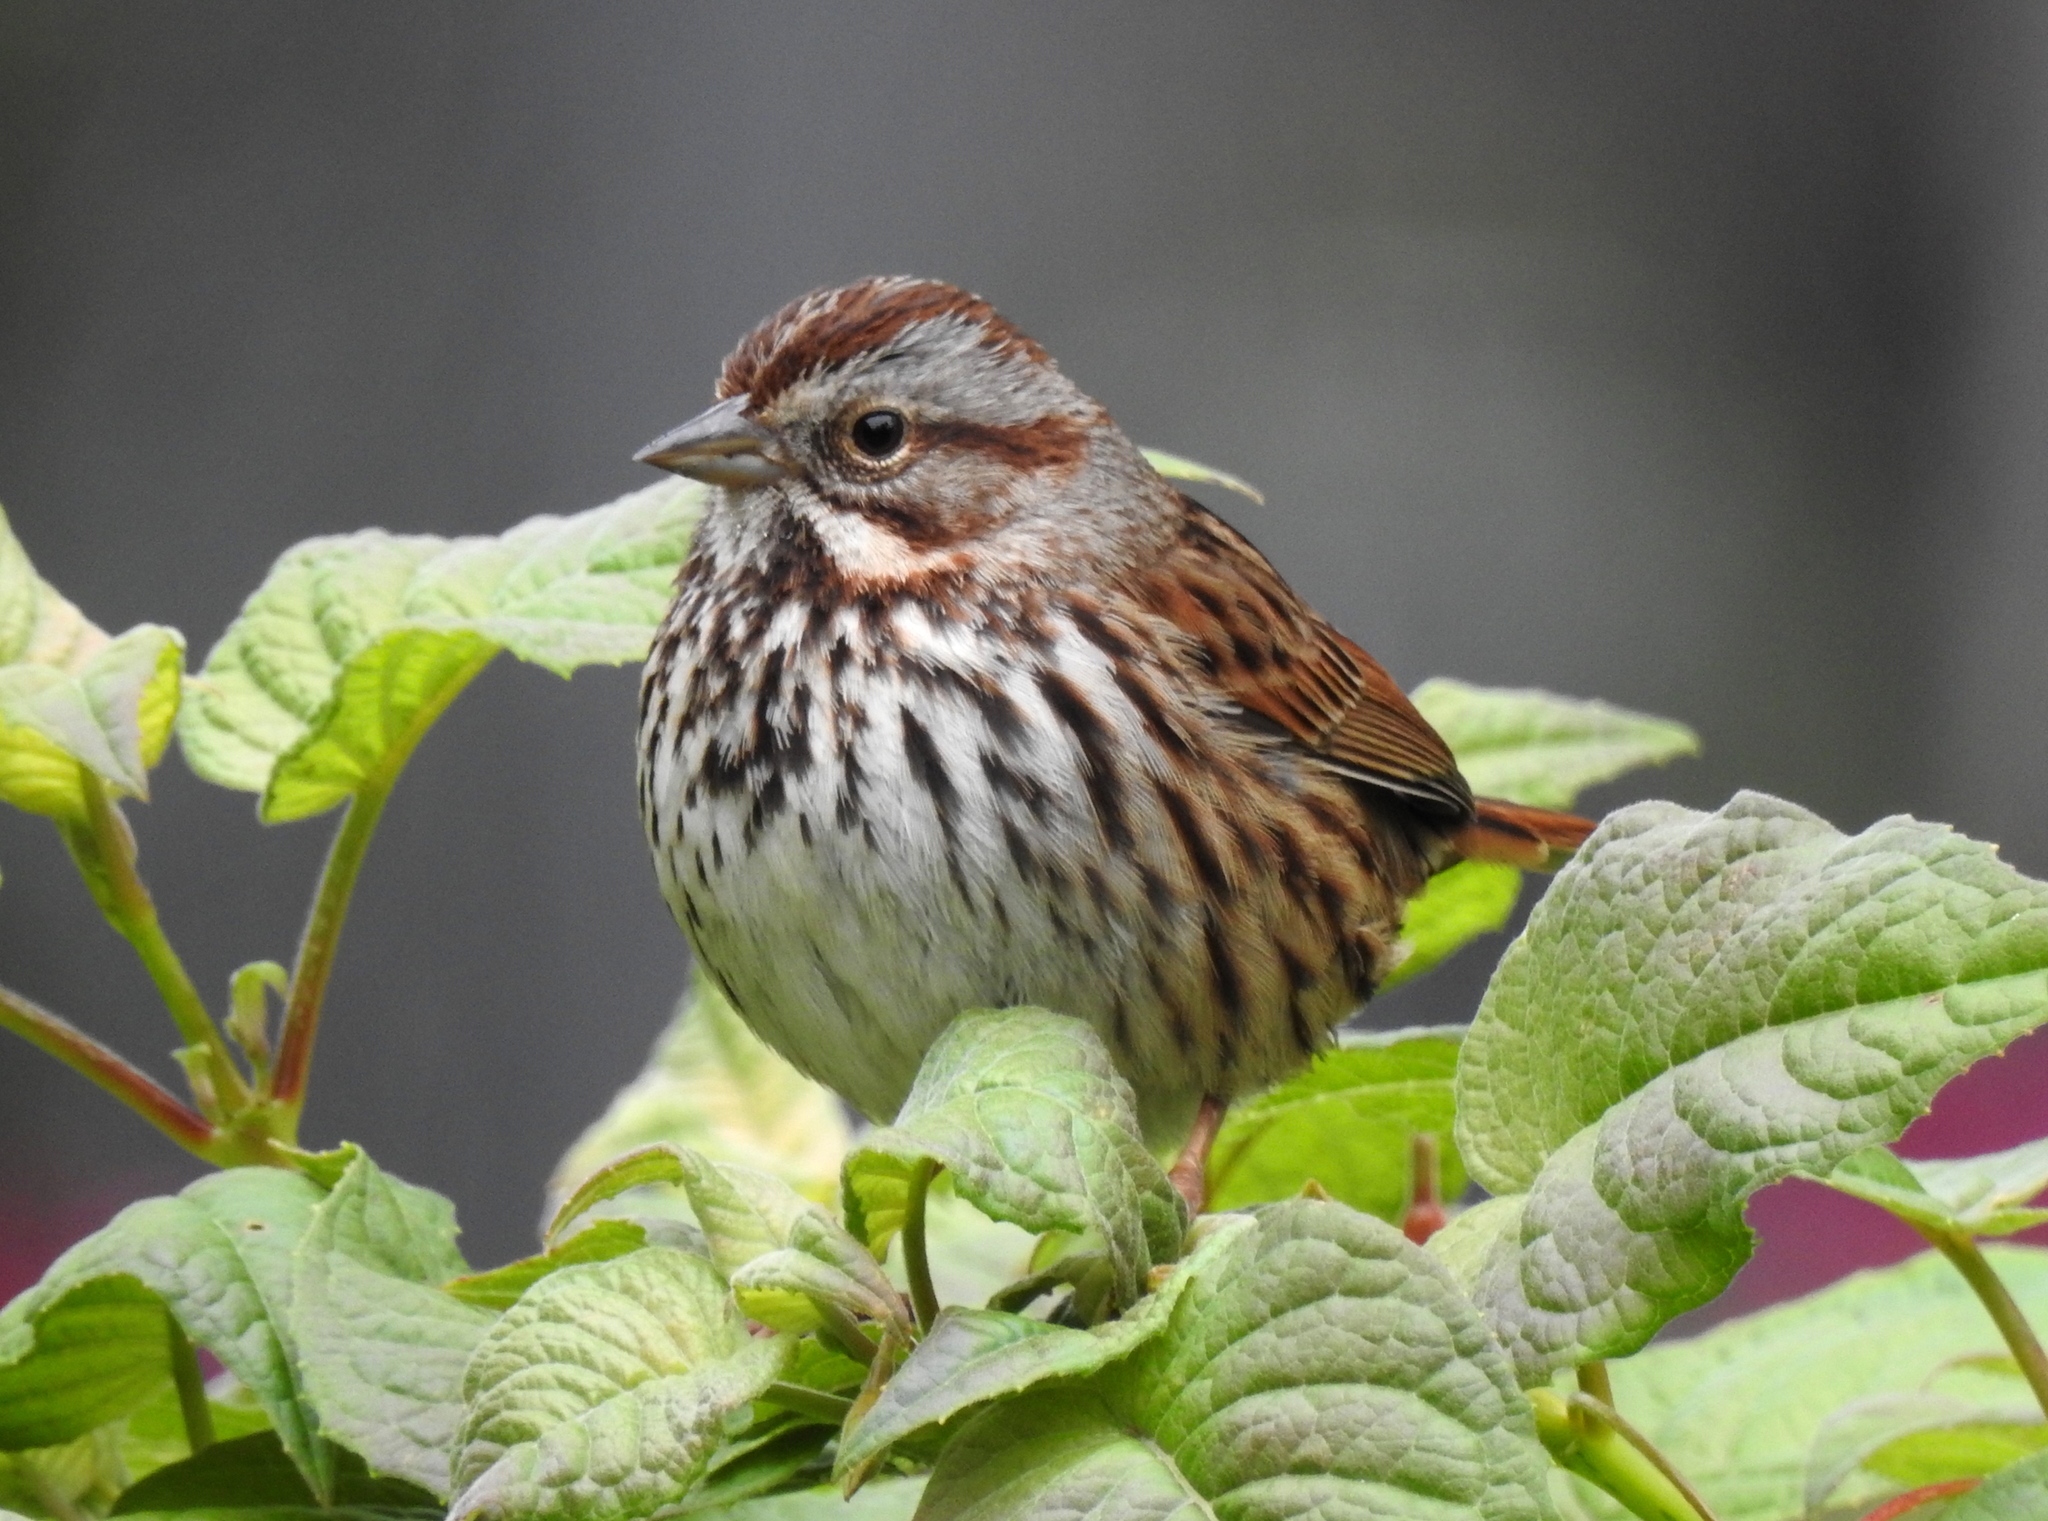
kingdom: Animalia
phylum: Chordata
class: Aves
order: Passeriformes
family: Passerellidae
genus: Melospiza
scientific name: Melospiza melodia
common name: Song sparrow
